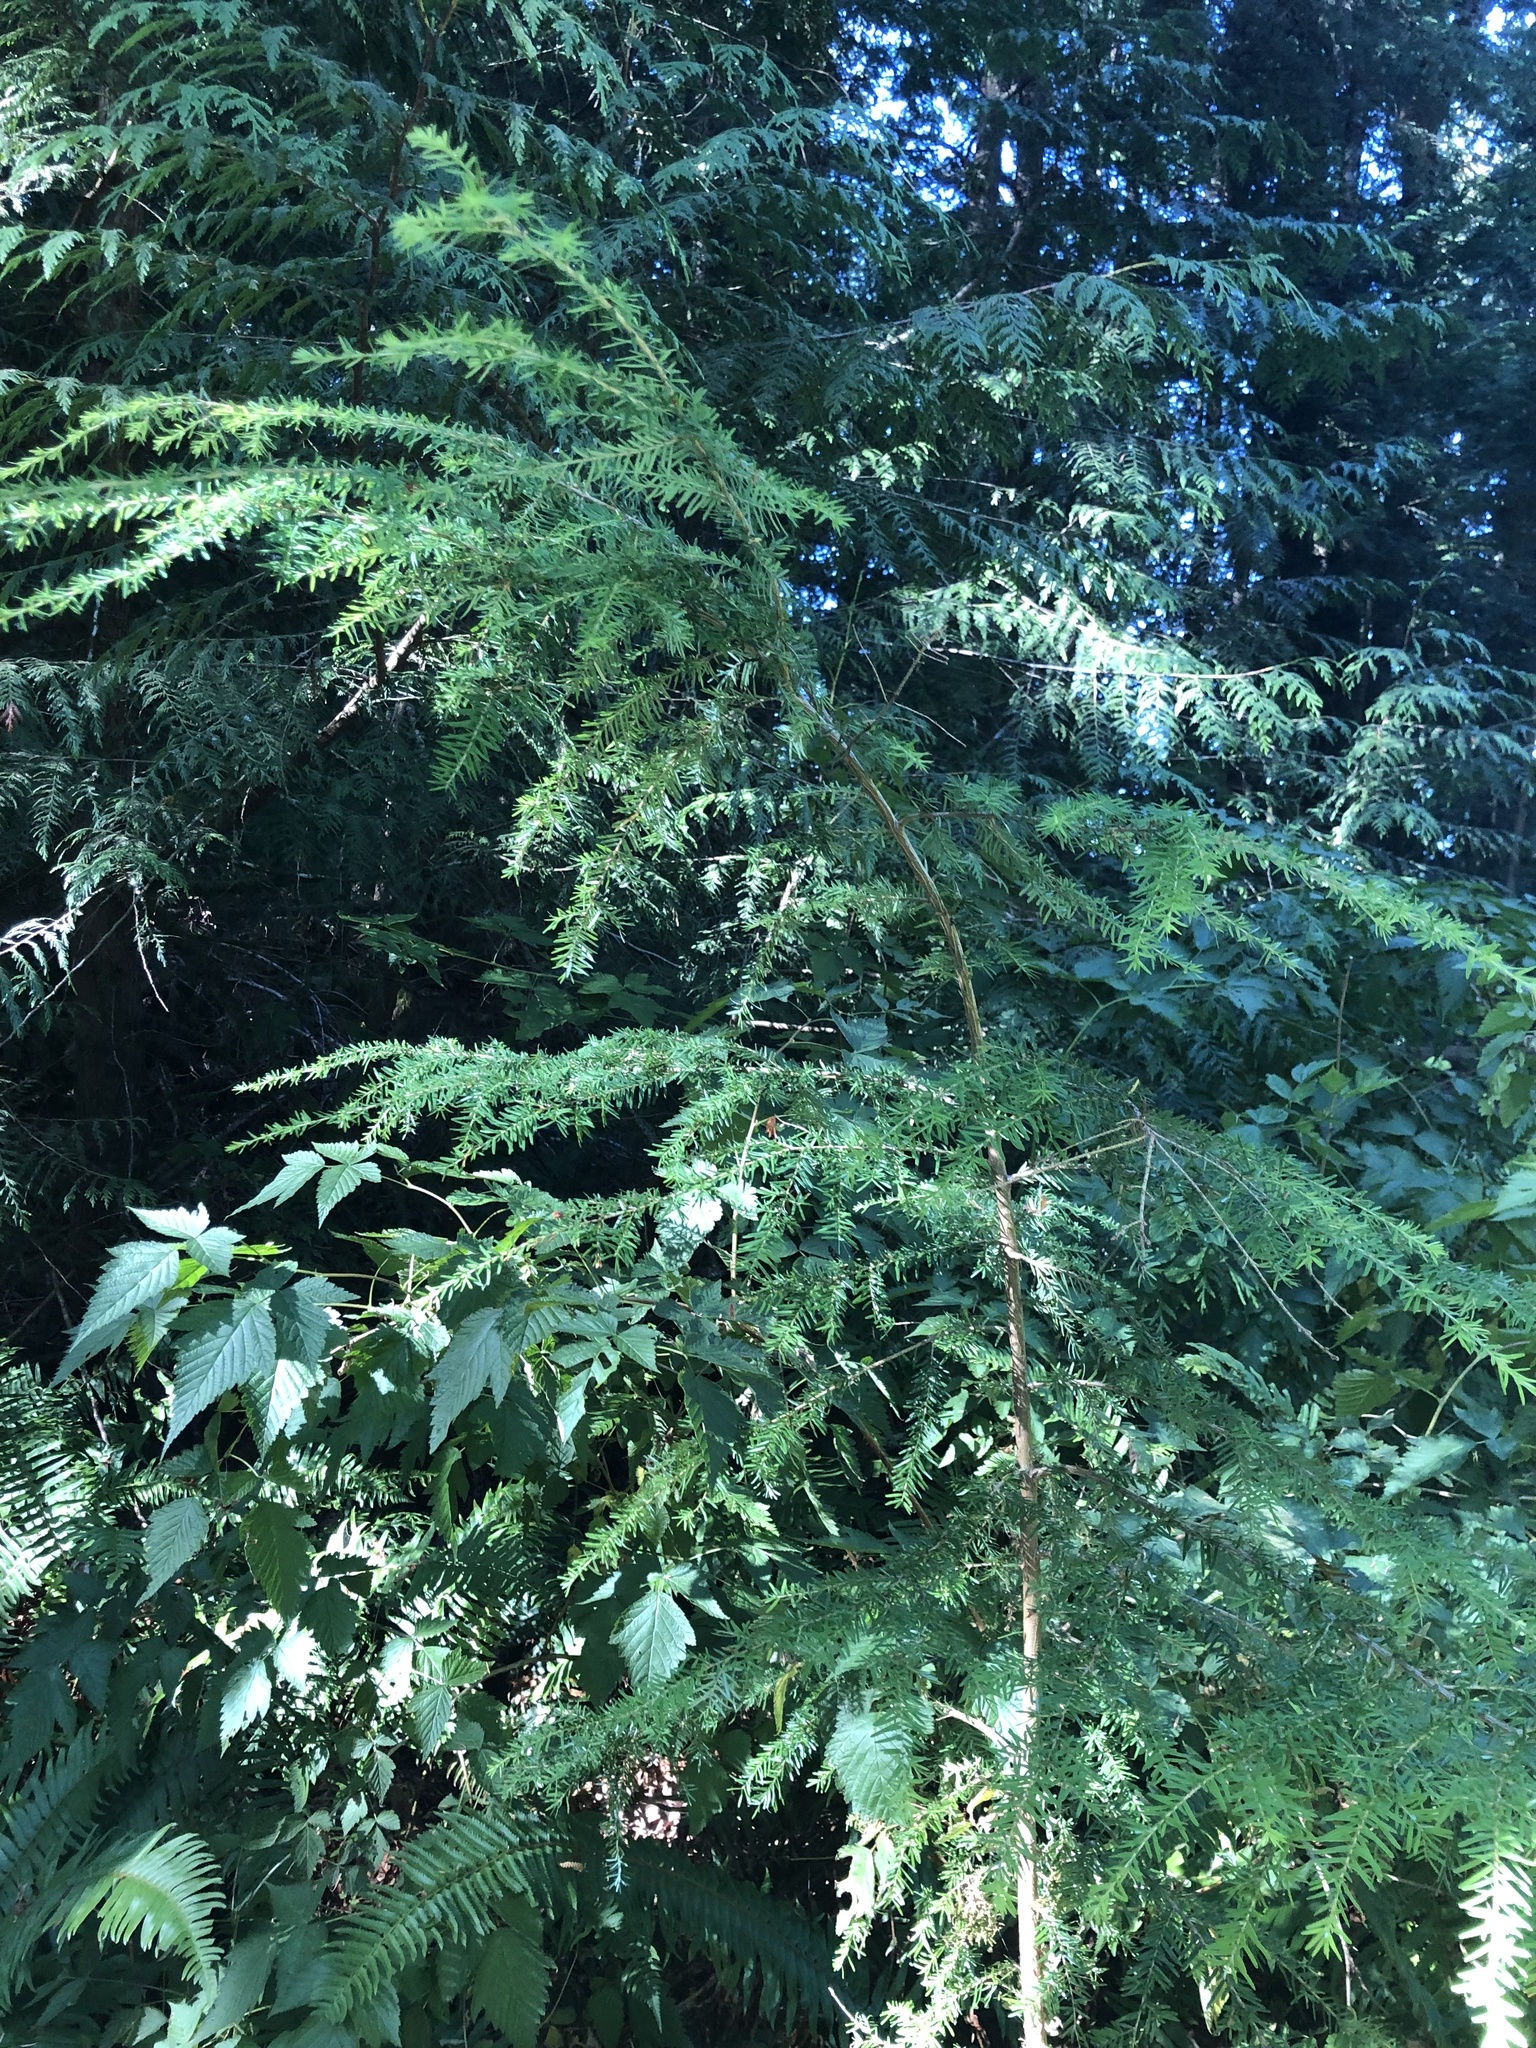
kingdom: Plantae
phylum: Tracheophyta
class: Pinopsida
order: Pinales
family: Pinaceae
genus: Tsuga
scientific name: Tsuga heterophylla
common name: Western hemlock
